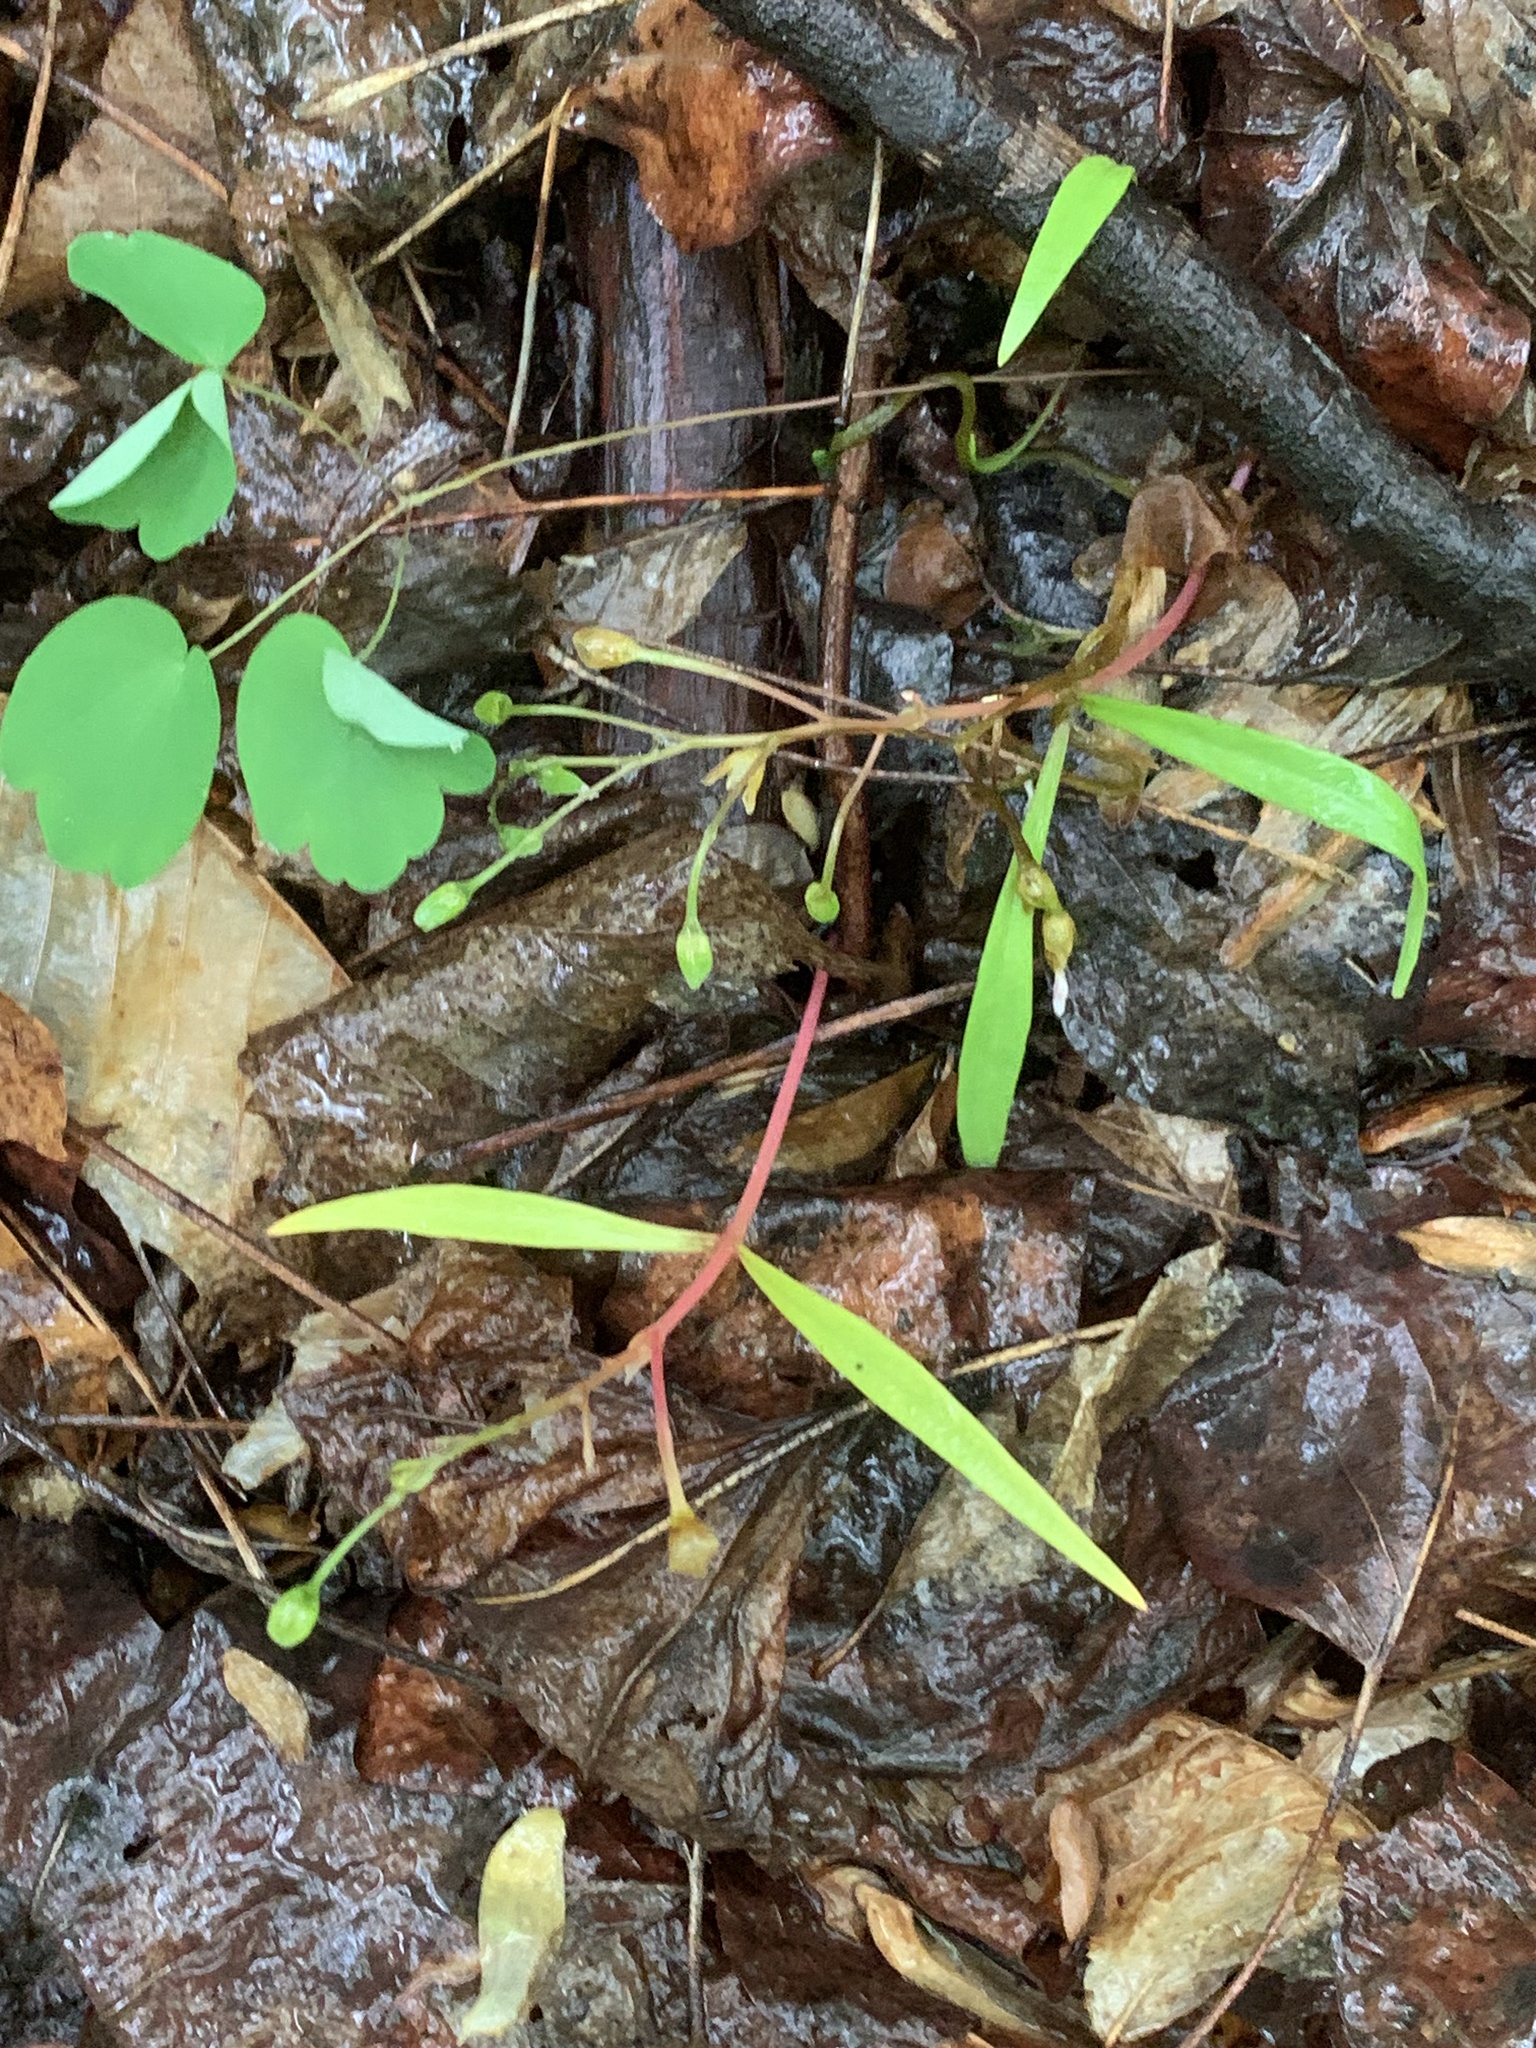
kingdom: Plantae
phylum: Tracheophyta
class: Magnoliopsida
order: Caryophyllales
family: Montiaceae
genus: Claytonia
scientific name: Claytonia virginica
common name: Virginia springbeauty
